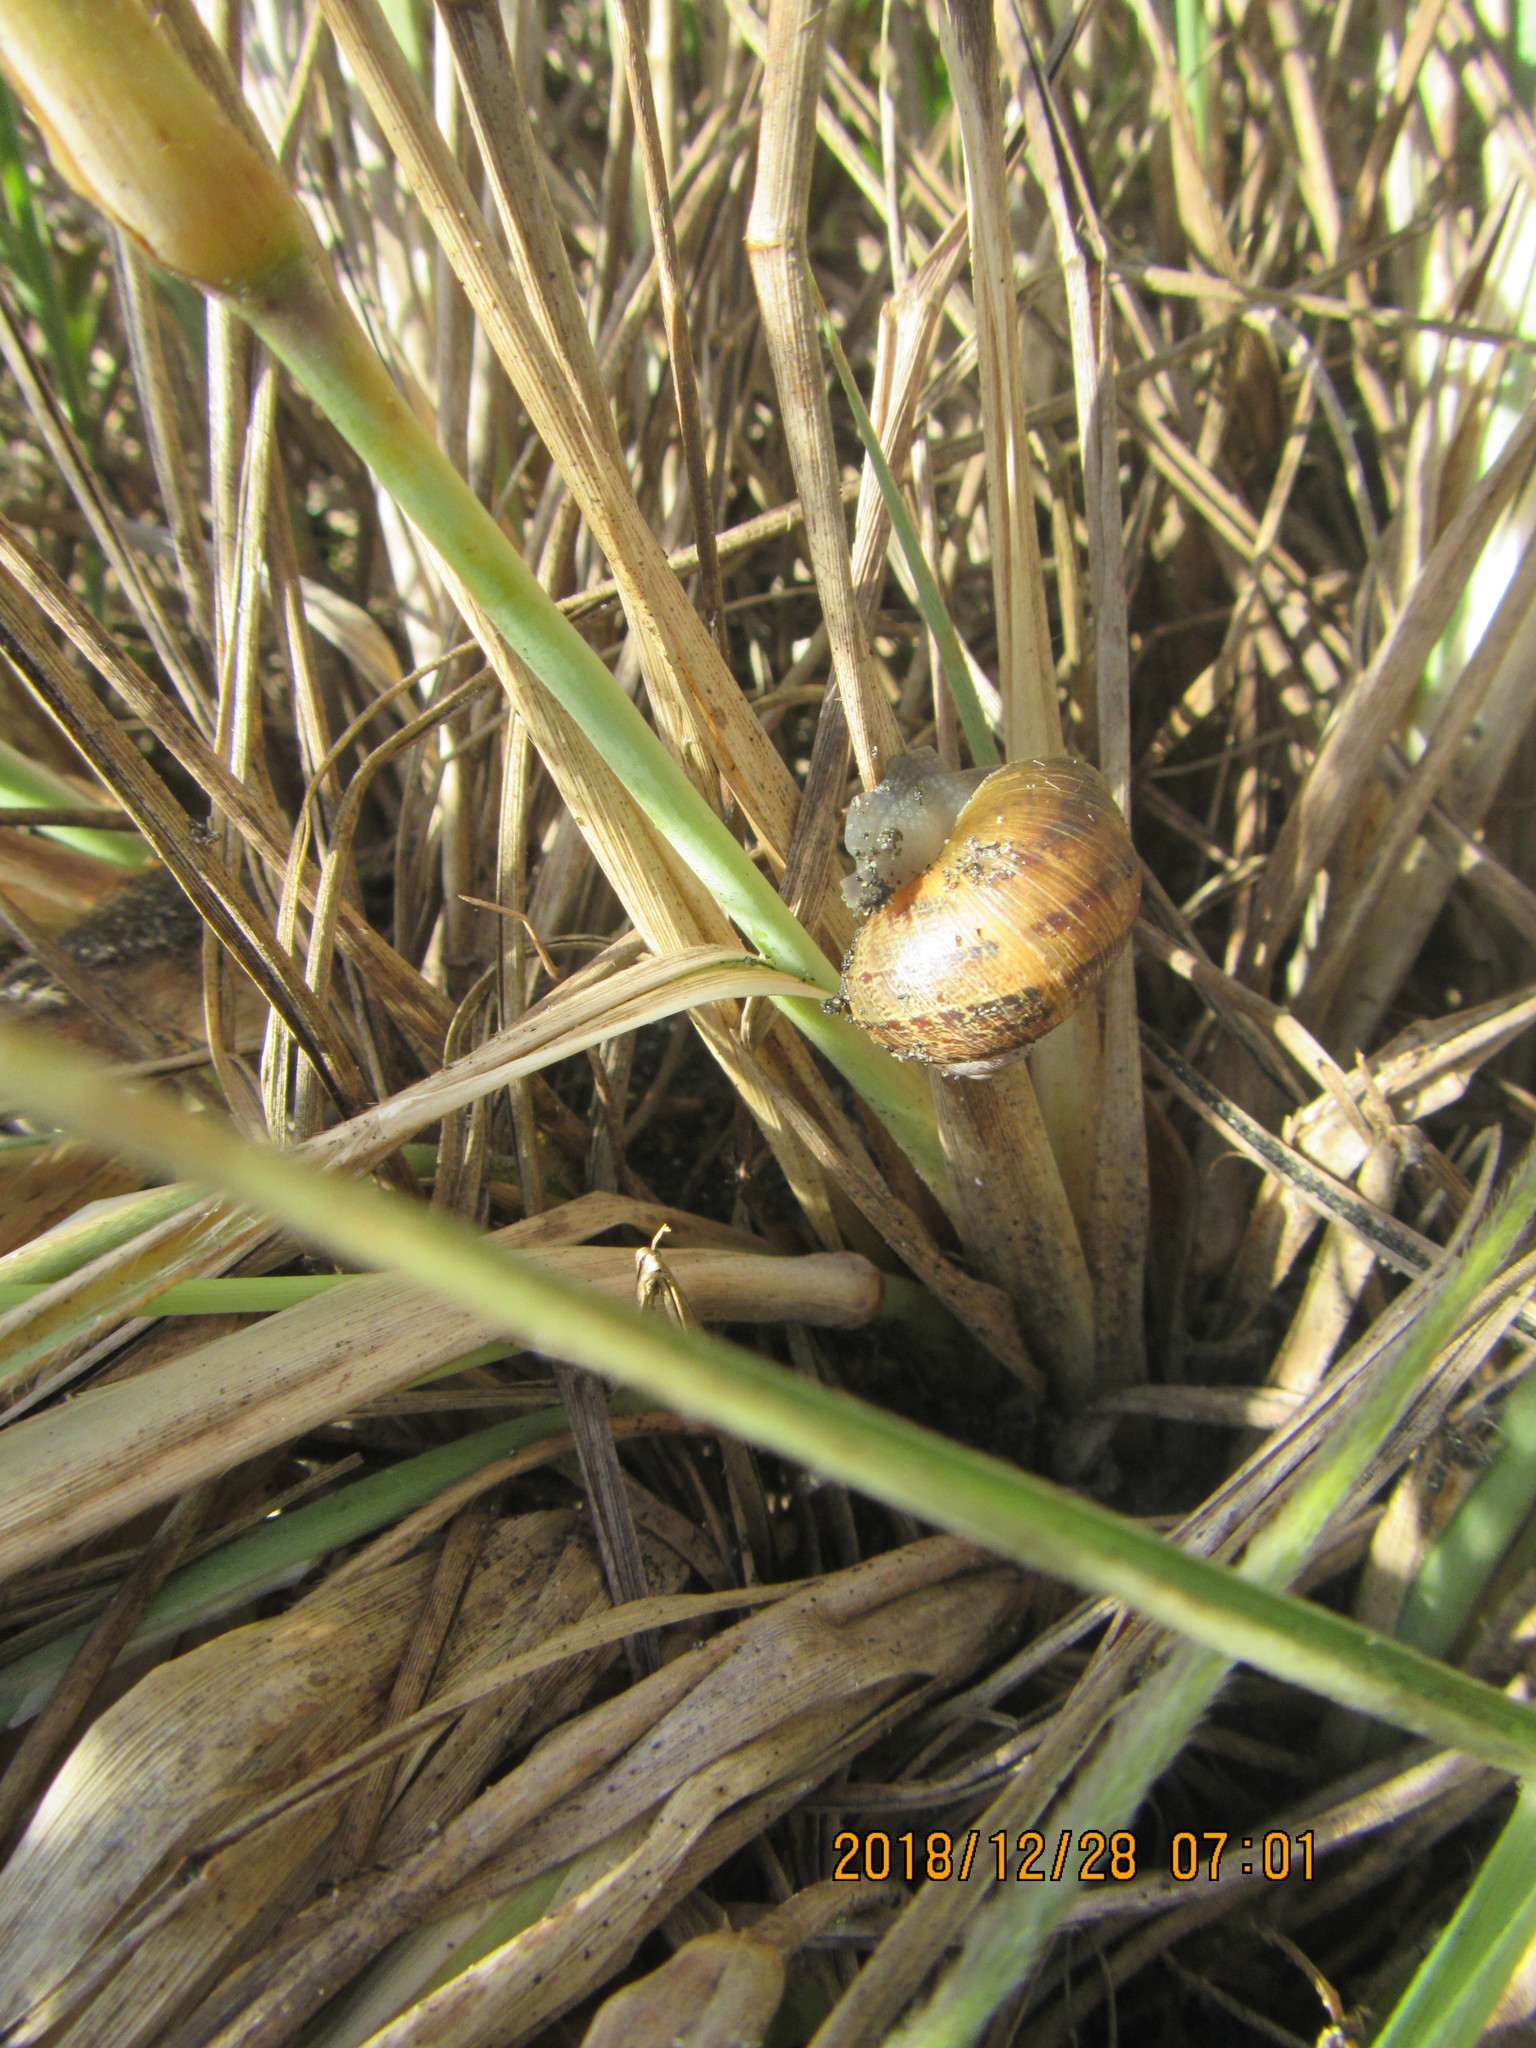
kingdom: Animalia
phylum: Mollusca
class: Gastropoda
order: Stylommatophora
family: Helicidae
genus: Cornu
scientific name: Cornu aspersum
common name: Brown garden snail
